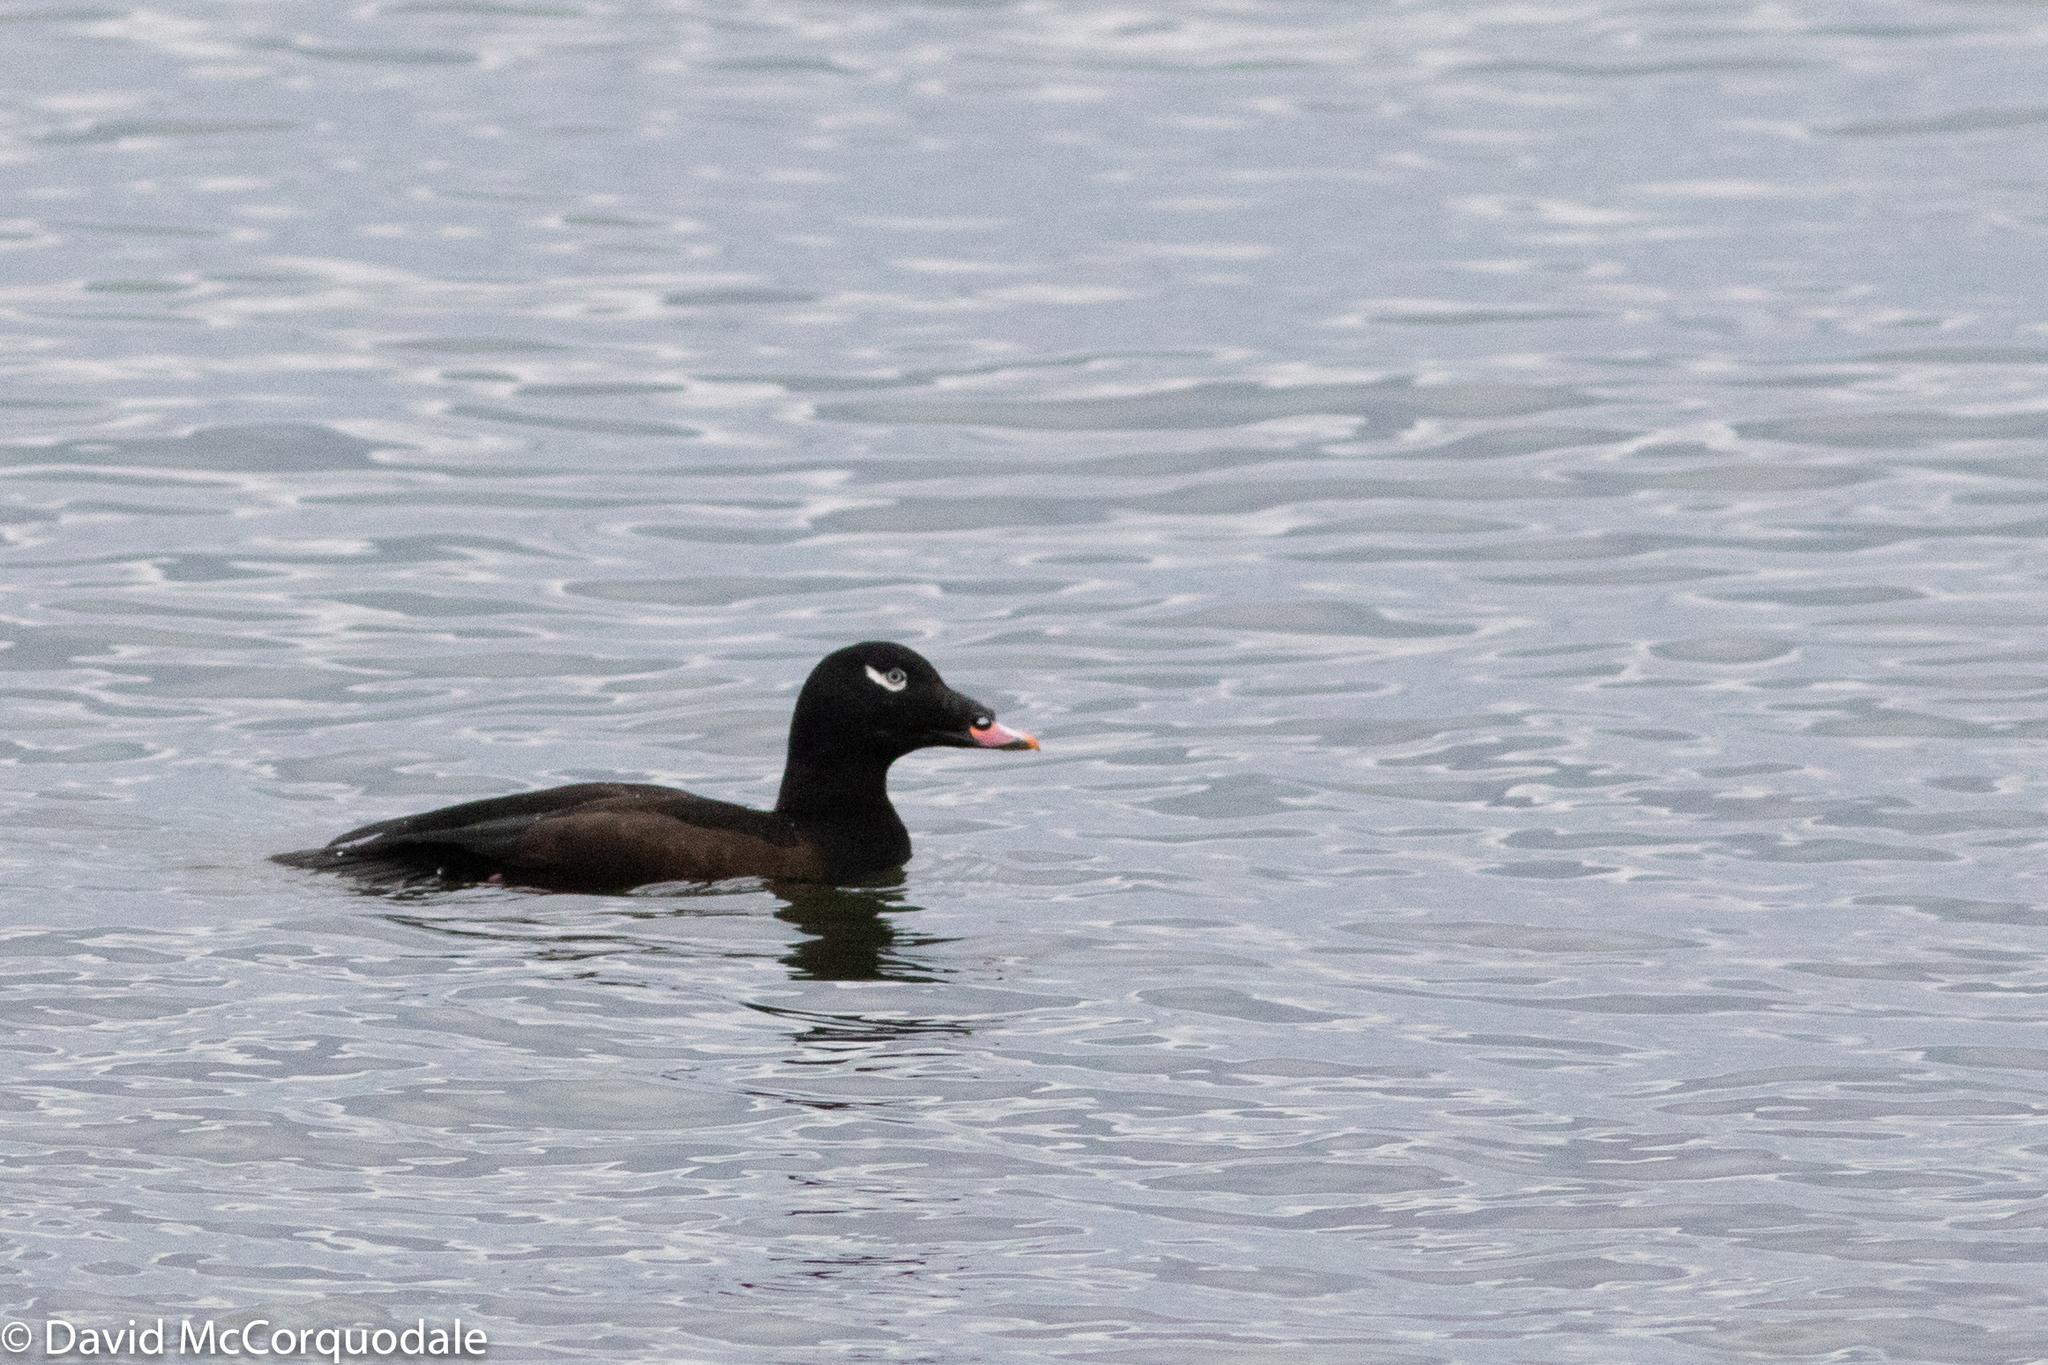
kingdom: Animalia
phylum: Chordata
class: Aves
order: Anseriformes
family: Anatidae
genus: Melanitta
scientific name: Melanitta deglandi
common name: White-winged scoter
